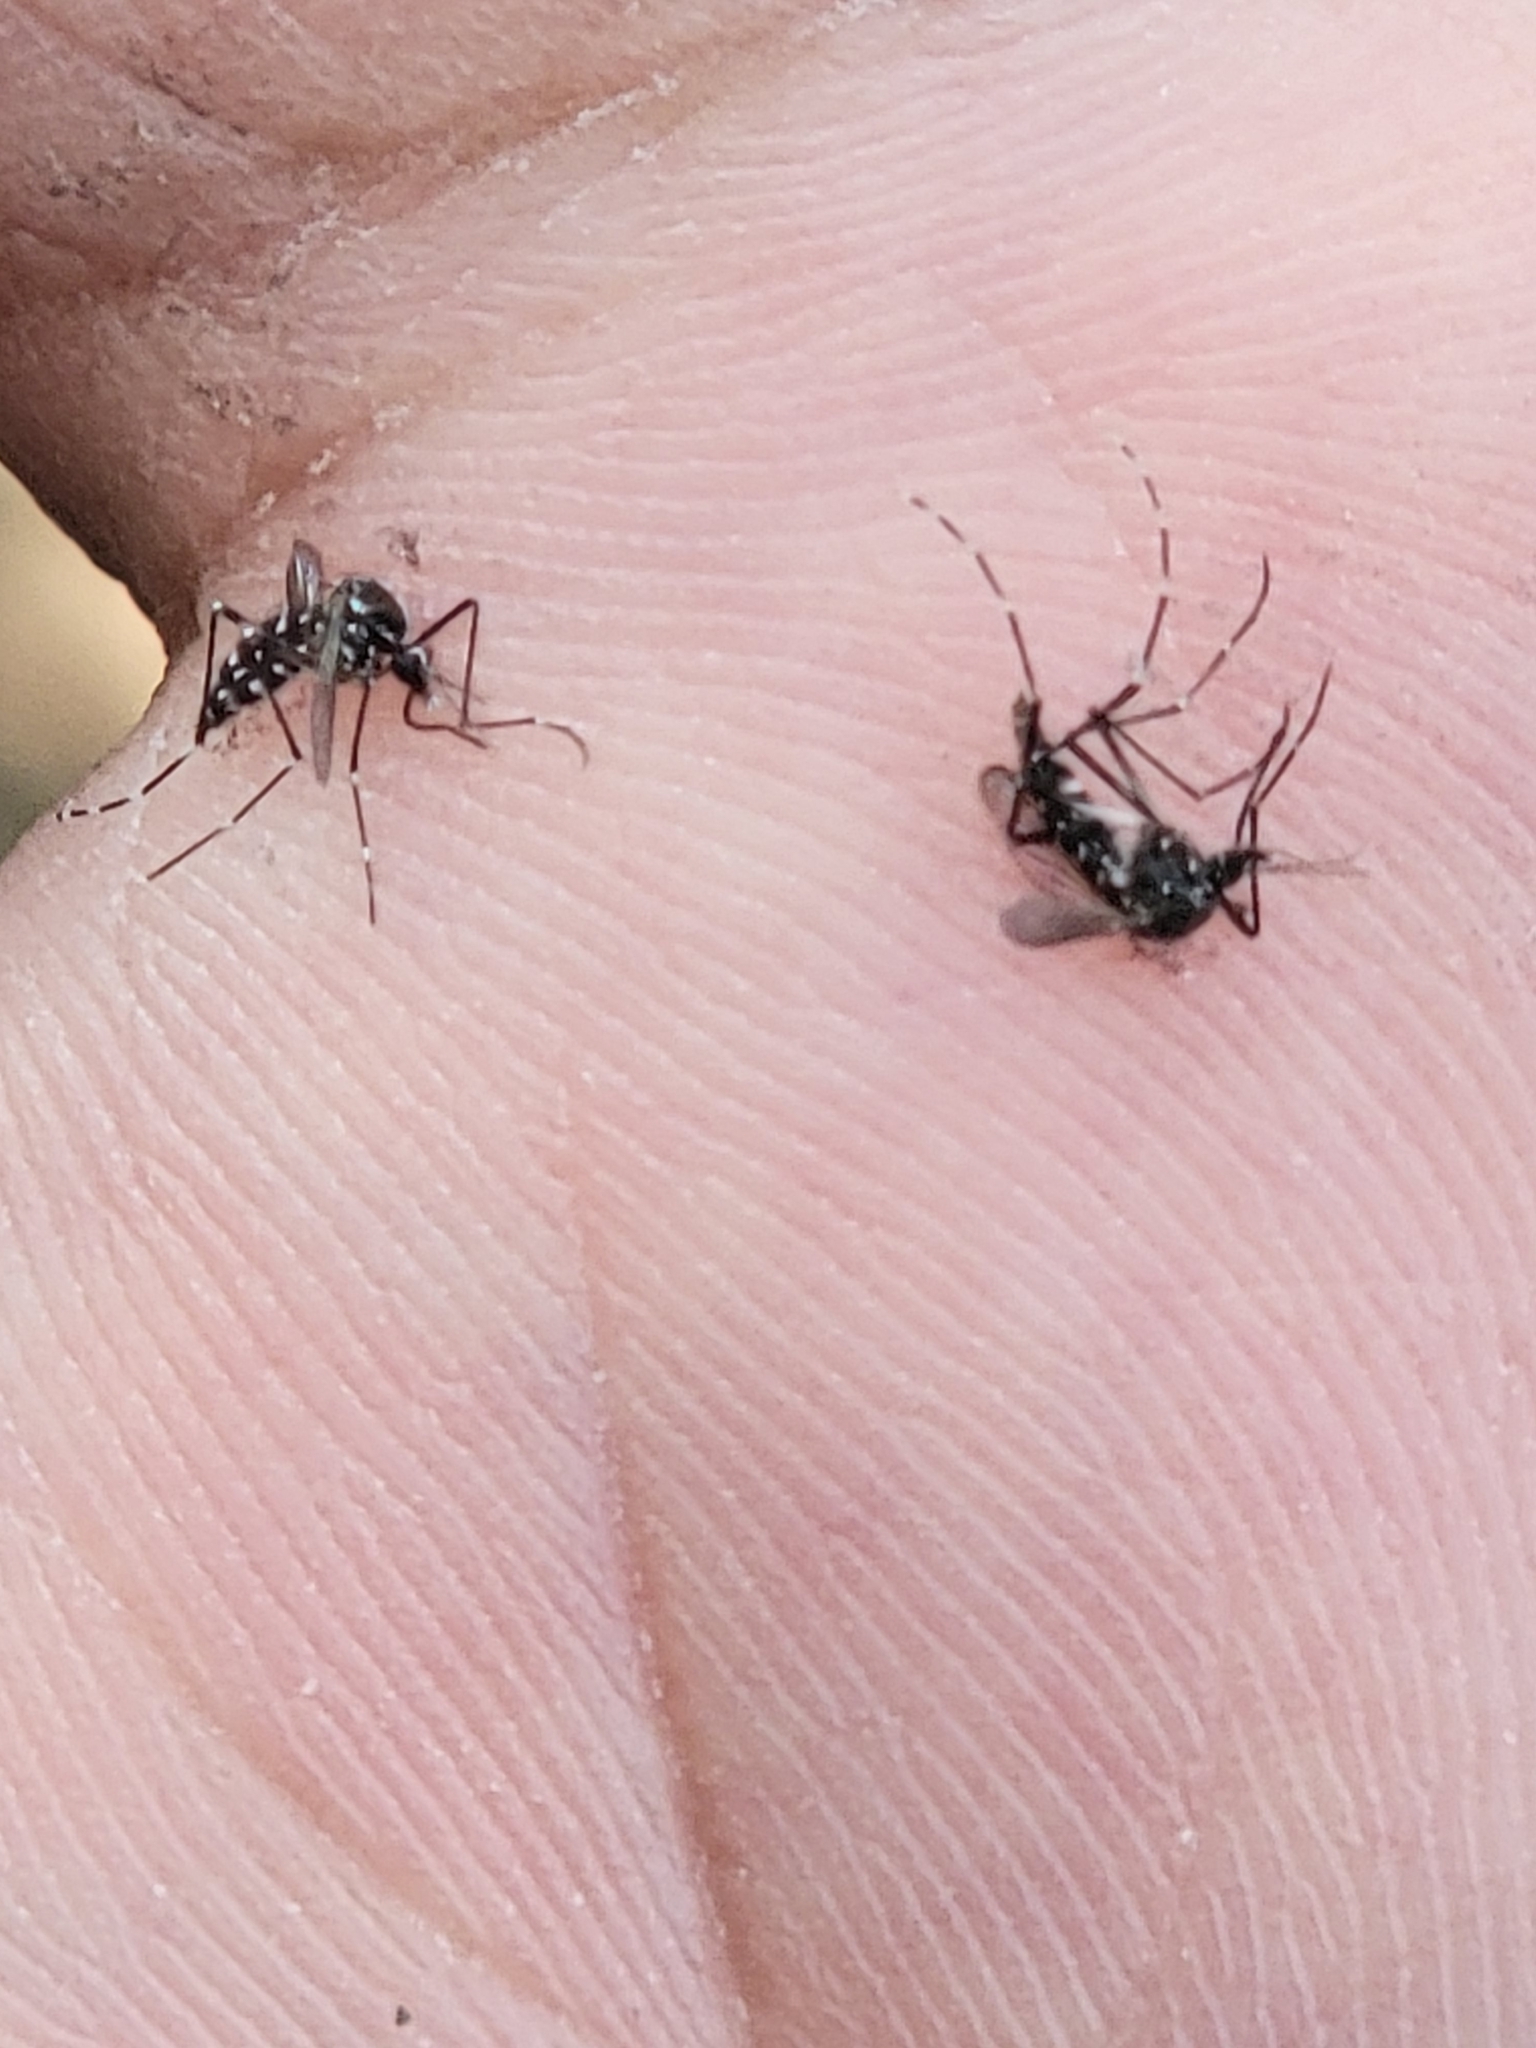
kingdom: Animalia
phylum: Arthropoda
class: Insecta
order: Diptera
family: Culicidae
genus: Aedes
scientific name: Aedes albopictus
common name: Tiger mosquito
